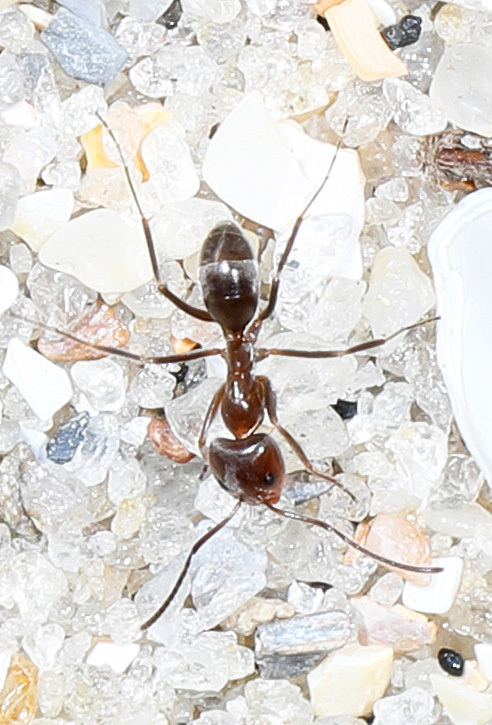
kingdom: Animalia
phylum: Arthropoda
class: Insecta
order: Hymenoptera
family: Formicidae
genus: Dorymyrmex
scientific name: Dorymyrmex
